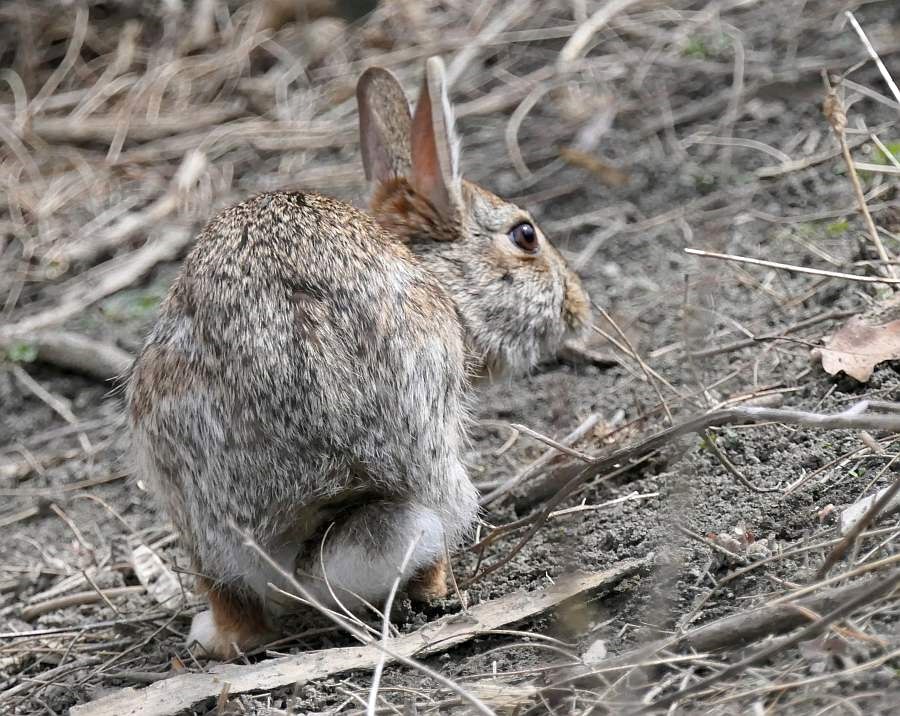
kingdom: Animalia
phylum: Chordata
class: Mammalia
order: Lagomorpha
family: Leporidae
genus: Sylvilagus
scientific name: Sylvilagus floridanus
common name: Eastern cottontail
